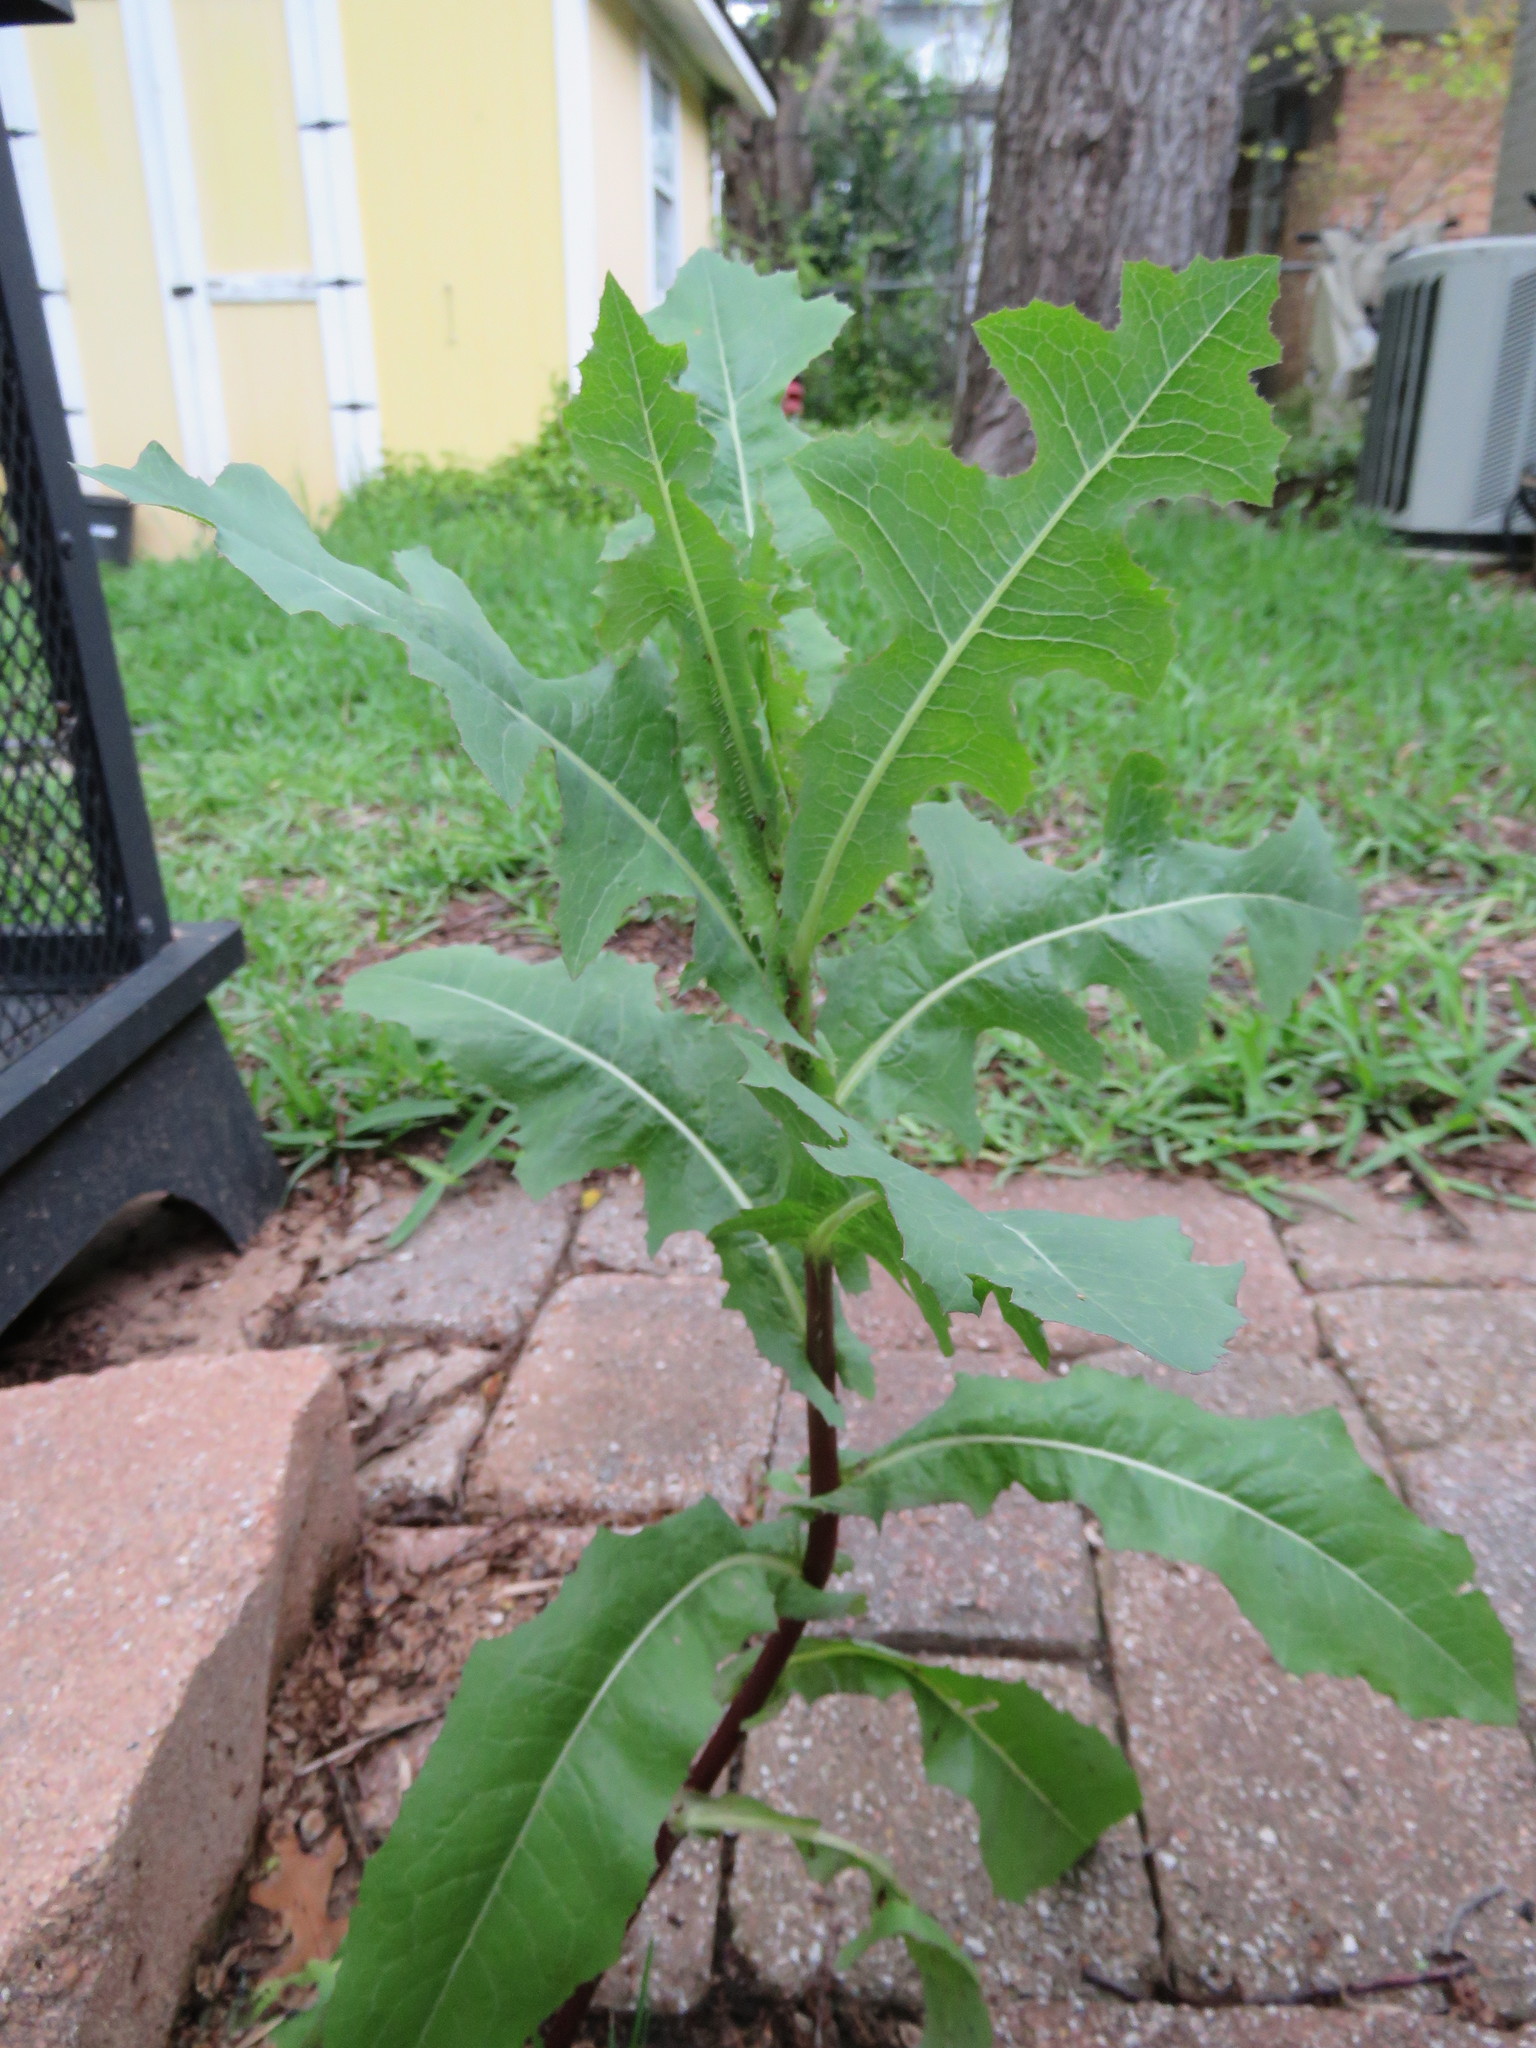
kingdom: Plantae
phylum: Tracheophyta
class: Magnoliopsida
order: Asterales
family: Asteraceae
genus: Sonchus
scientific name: Sonchus oleraceus
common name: Common sowthistle
